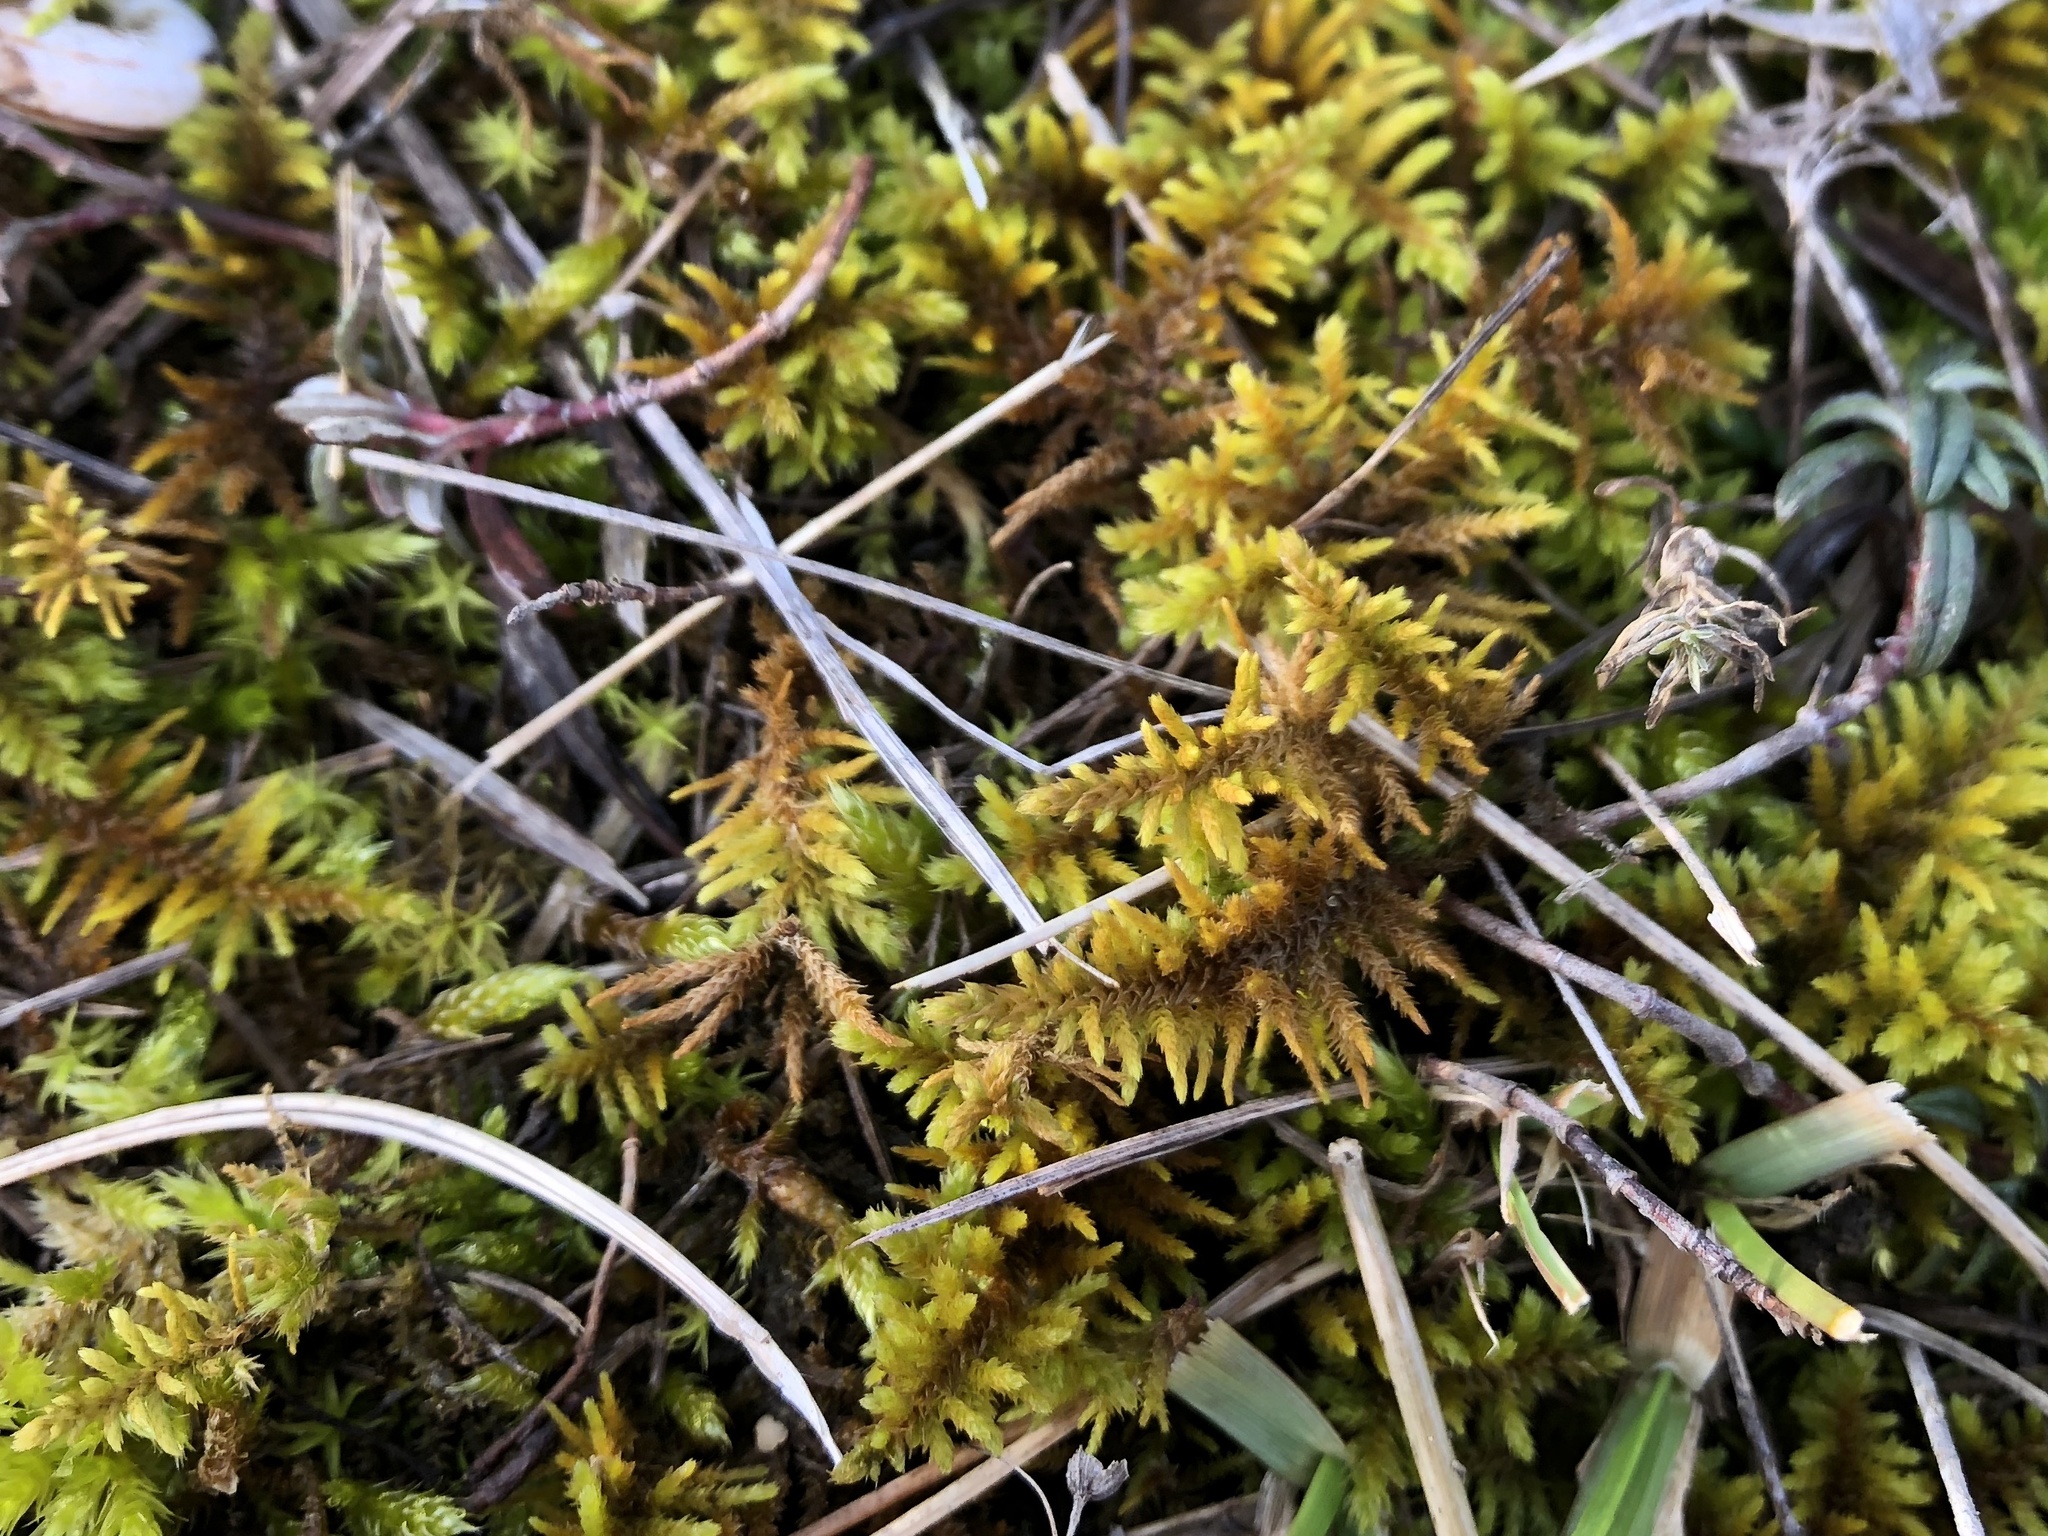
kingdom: Plantae
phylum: Bryophyta
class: Bryopsida
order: Hypnales
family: Thuidiaceae
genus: Abietinella
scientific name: Abietinella abietina
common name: Wiry fern moss
